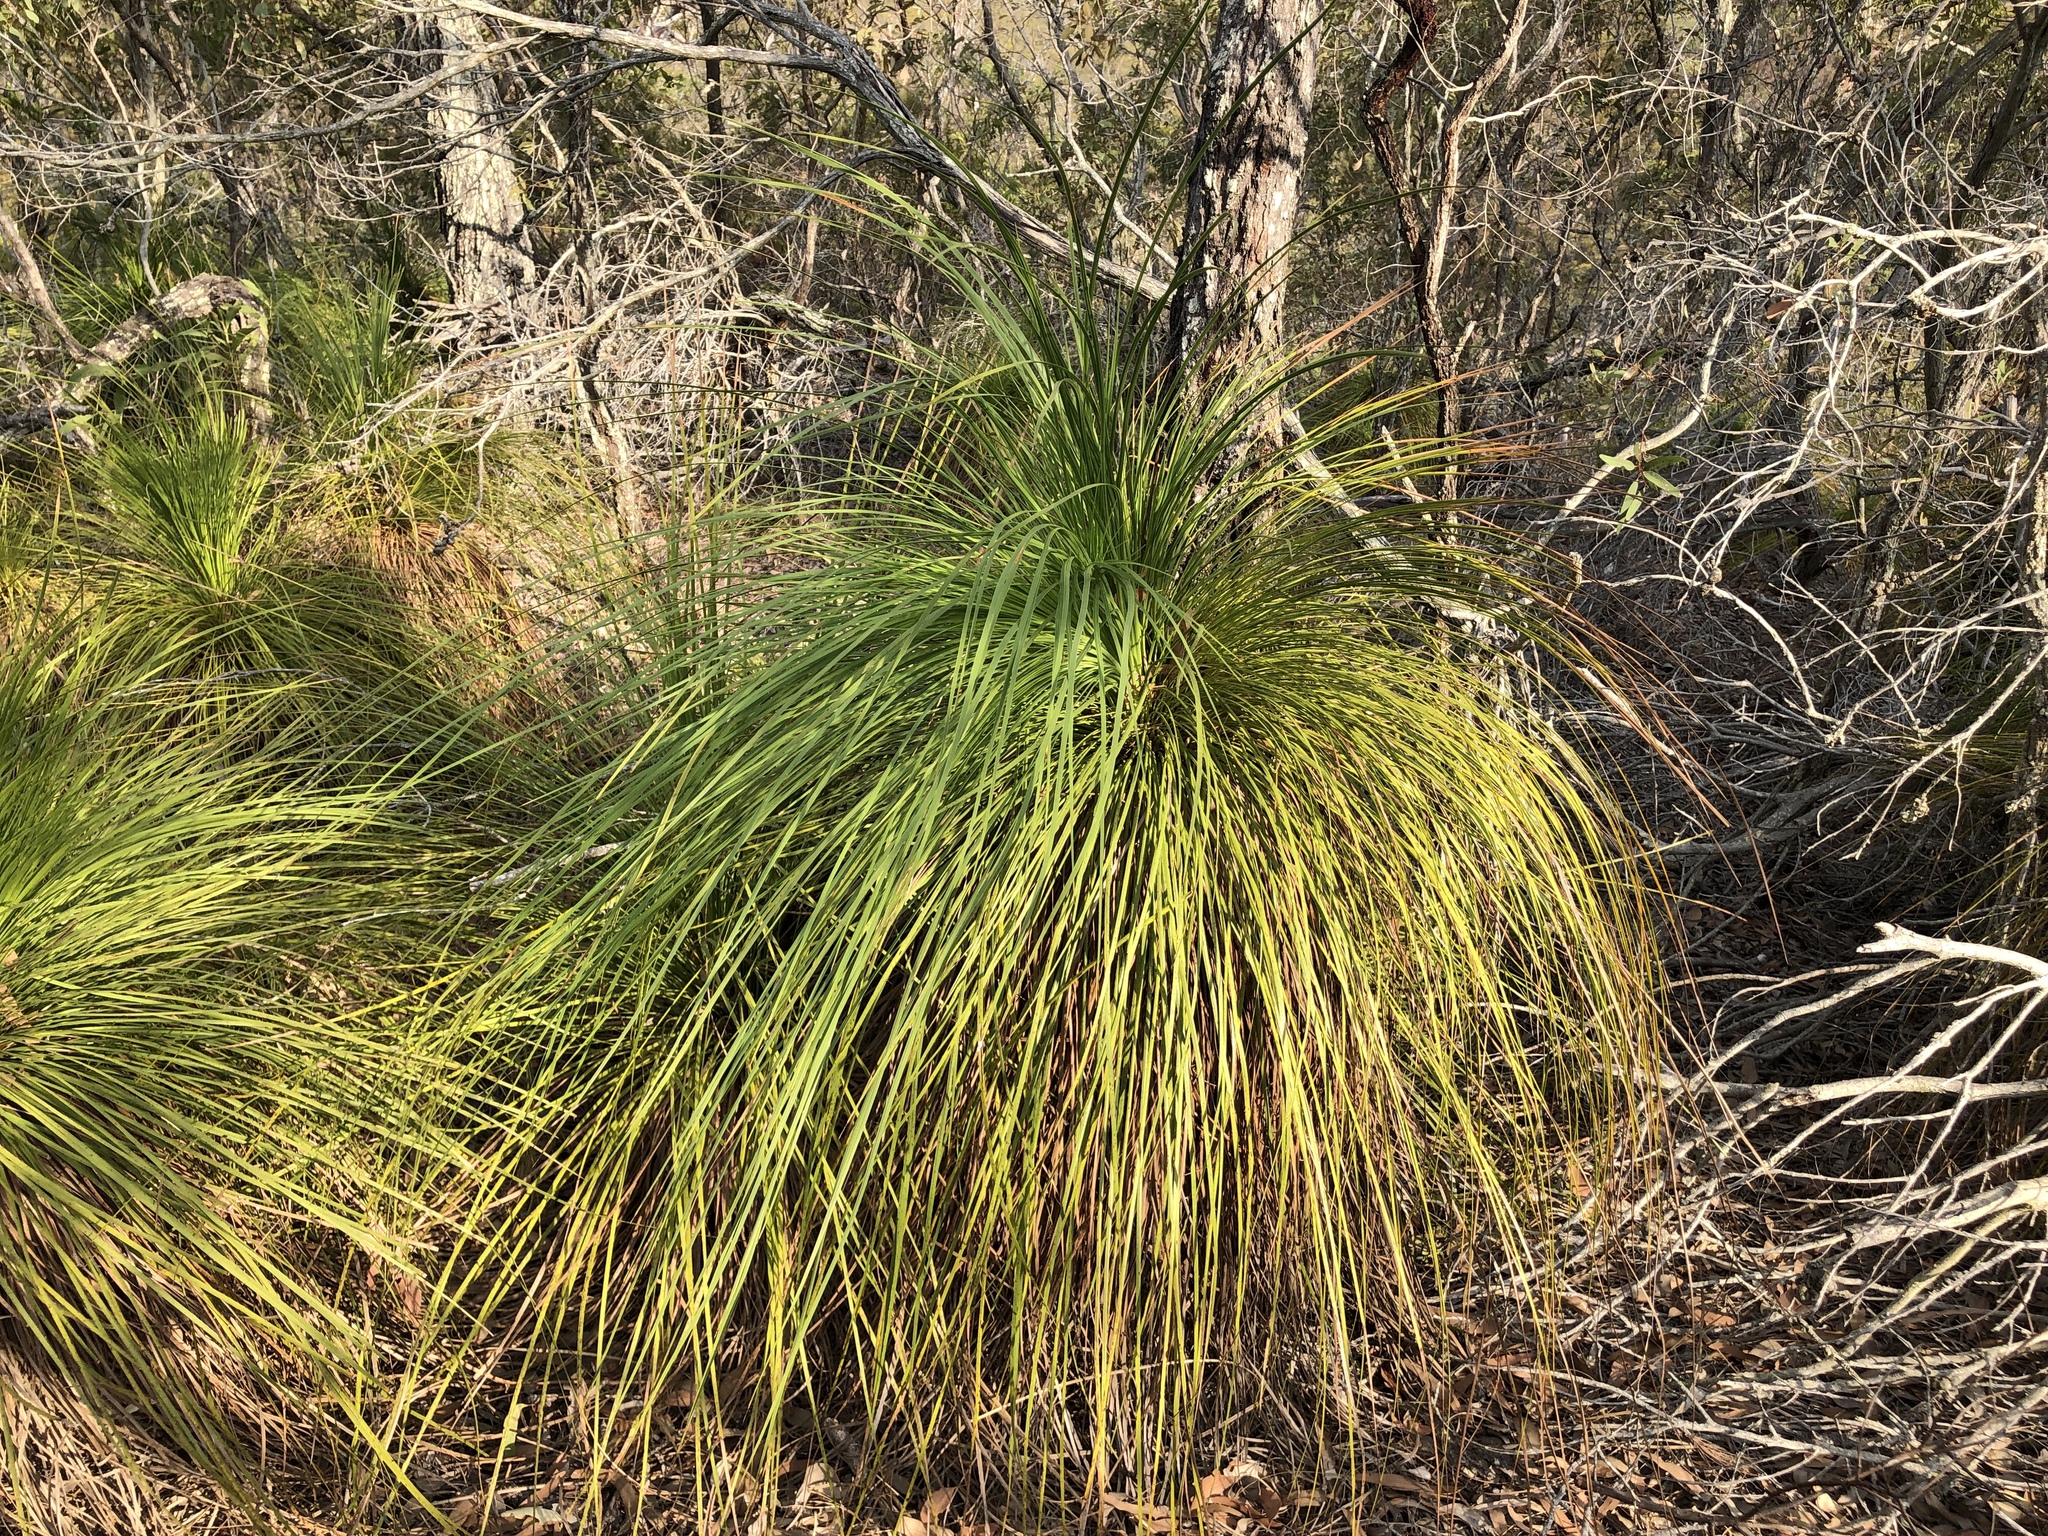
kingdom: Plantae
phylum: Tracheophyta
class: Liliopsida
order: Asparagales
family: Asphodelaceae
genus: Xanthorrhoea
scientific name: Xanthorrhoea latifolia
